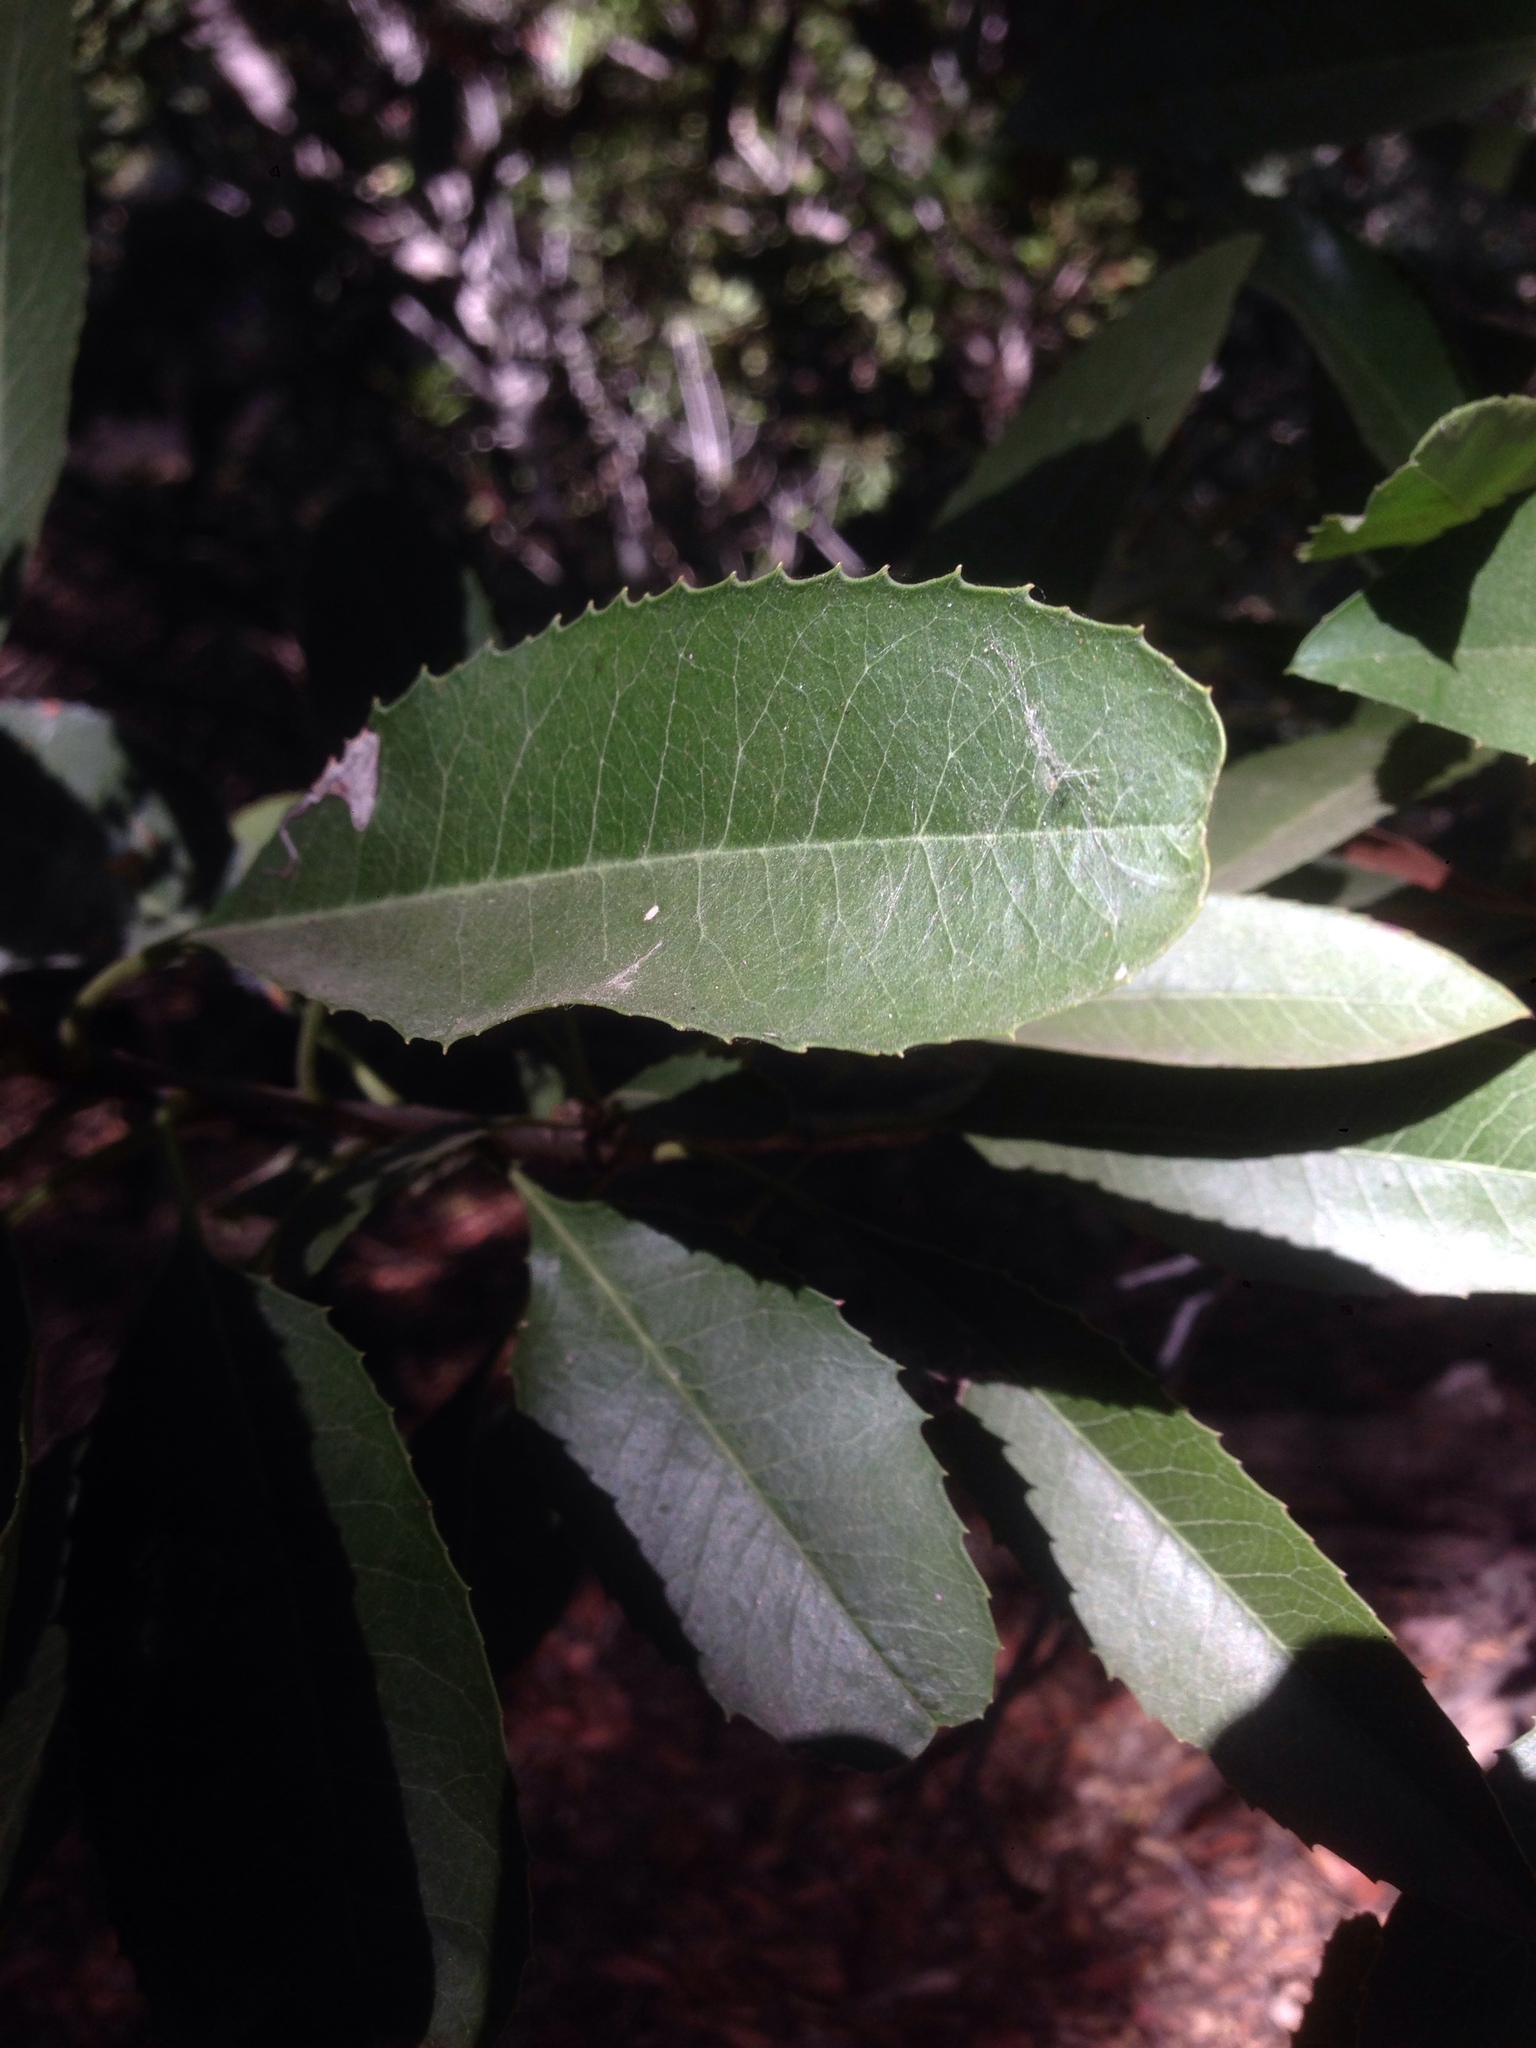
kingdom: Plantae
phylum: Tracheophyta
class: Magnoliopsida
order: Rosales
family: Rosaceae
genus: Heteromeles
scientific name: Heteromeles arbutifolia
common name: California-holly
